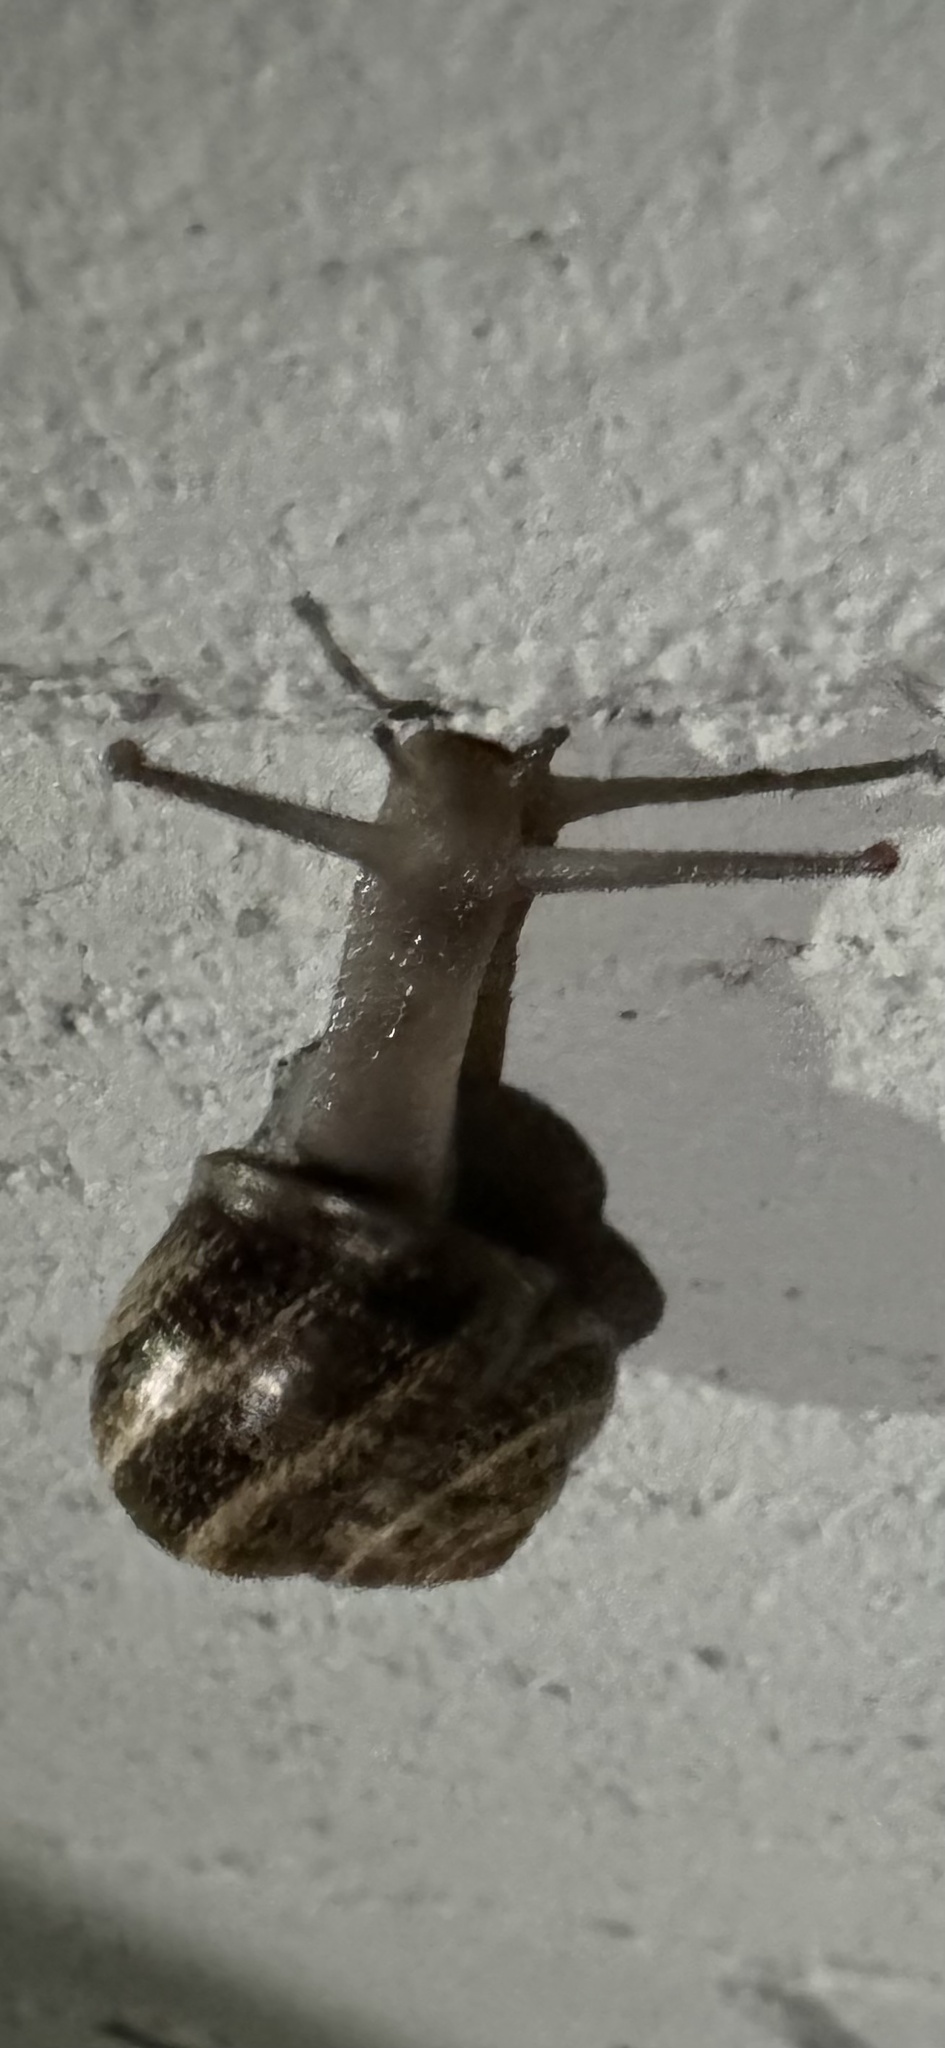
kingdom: Animalia
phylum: Mollusca
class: Gastropoda
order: Stylommatophora
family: Helicidae
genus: Otala
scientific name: Otala lactea
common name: Milk snail
